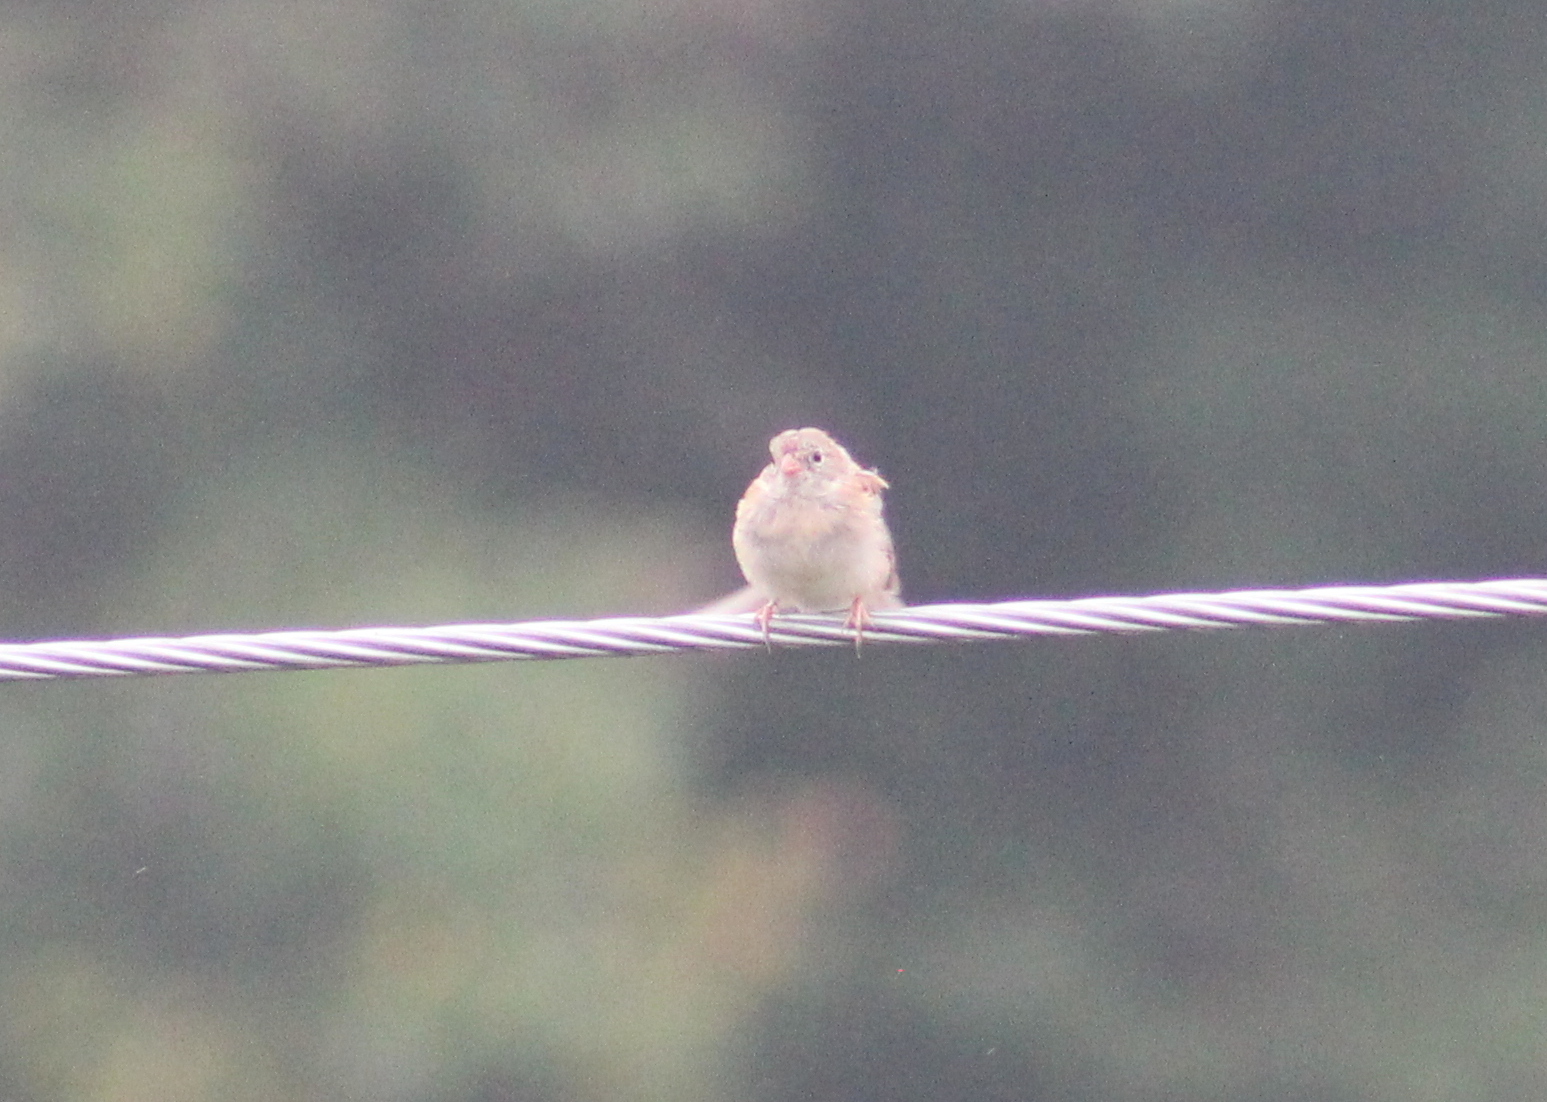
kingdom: Animalia
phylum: Chordata
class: Aves
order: Passeriformes
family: Passerellidae
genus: Spizella
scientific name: Spizella pusilla
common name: Field sparrow
